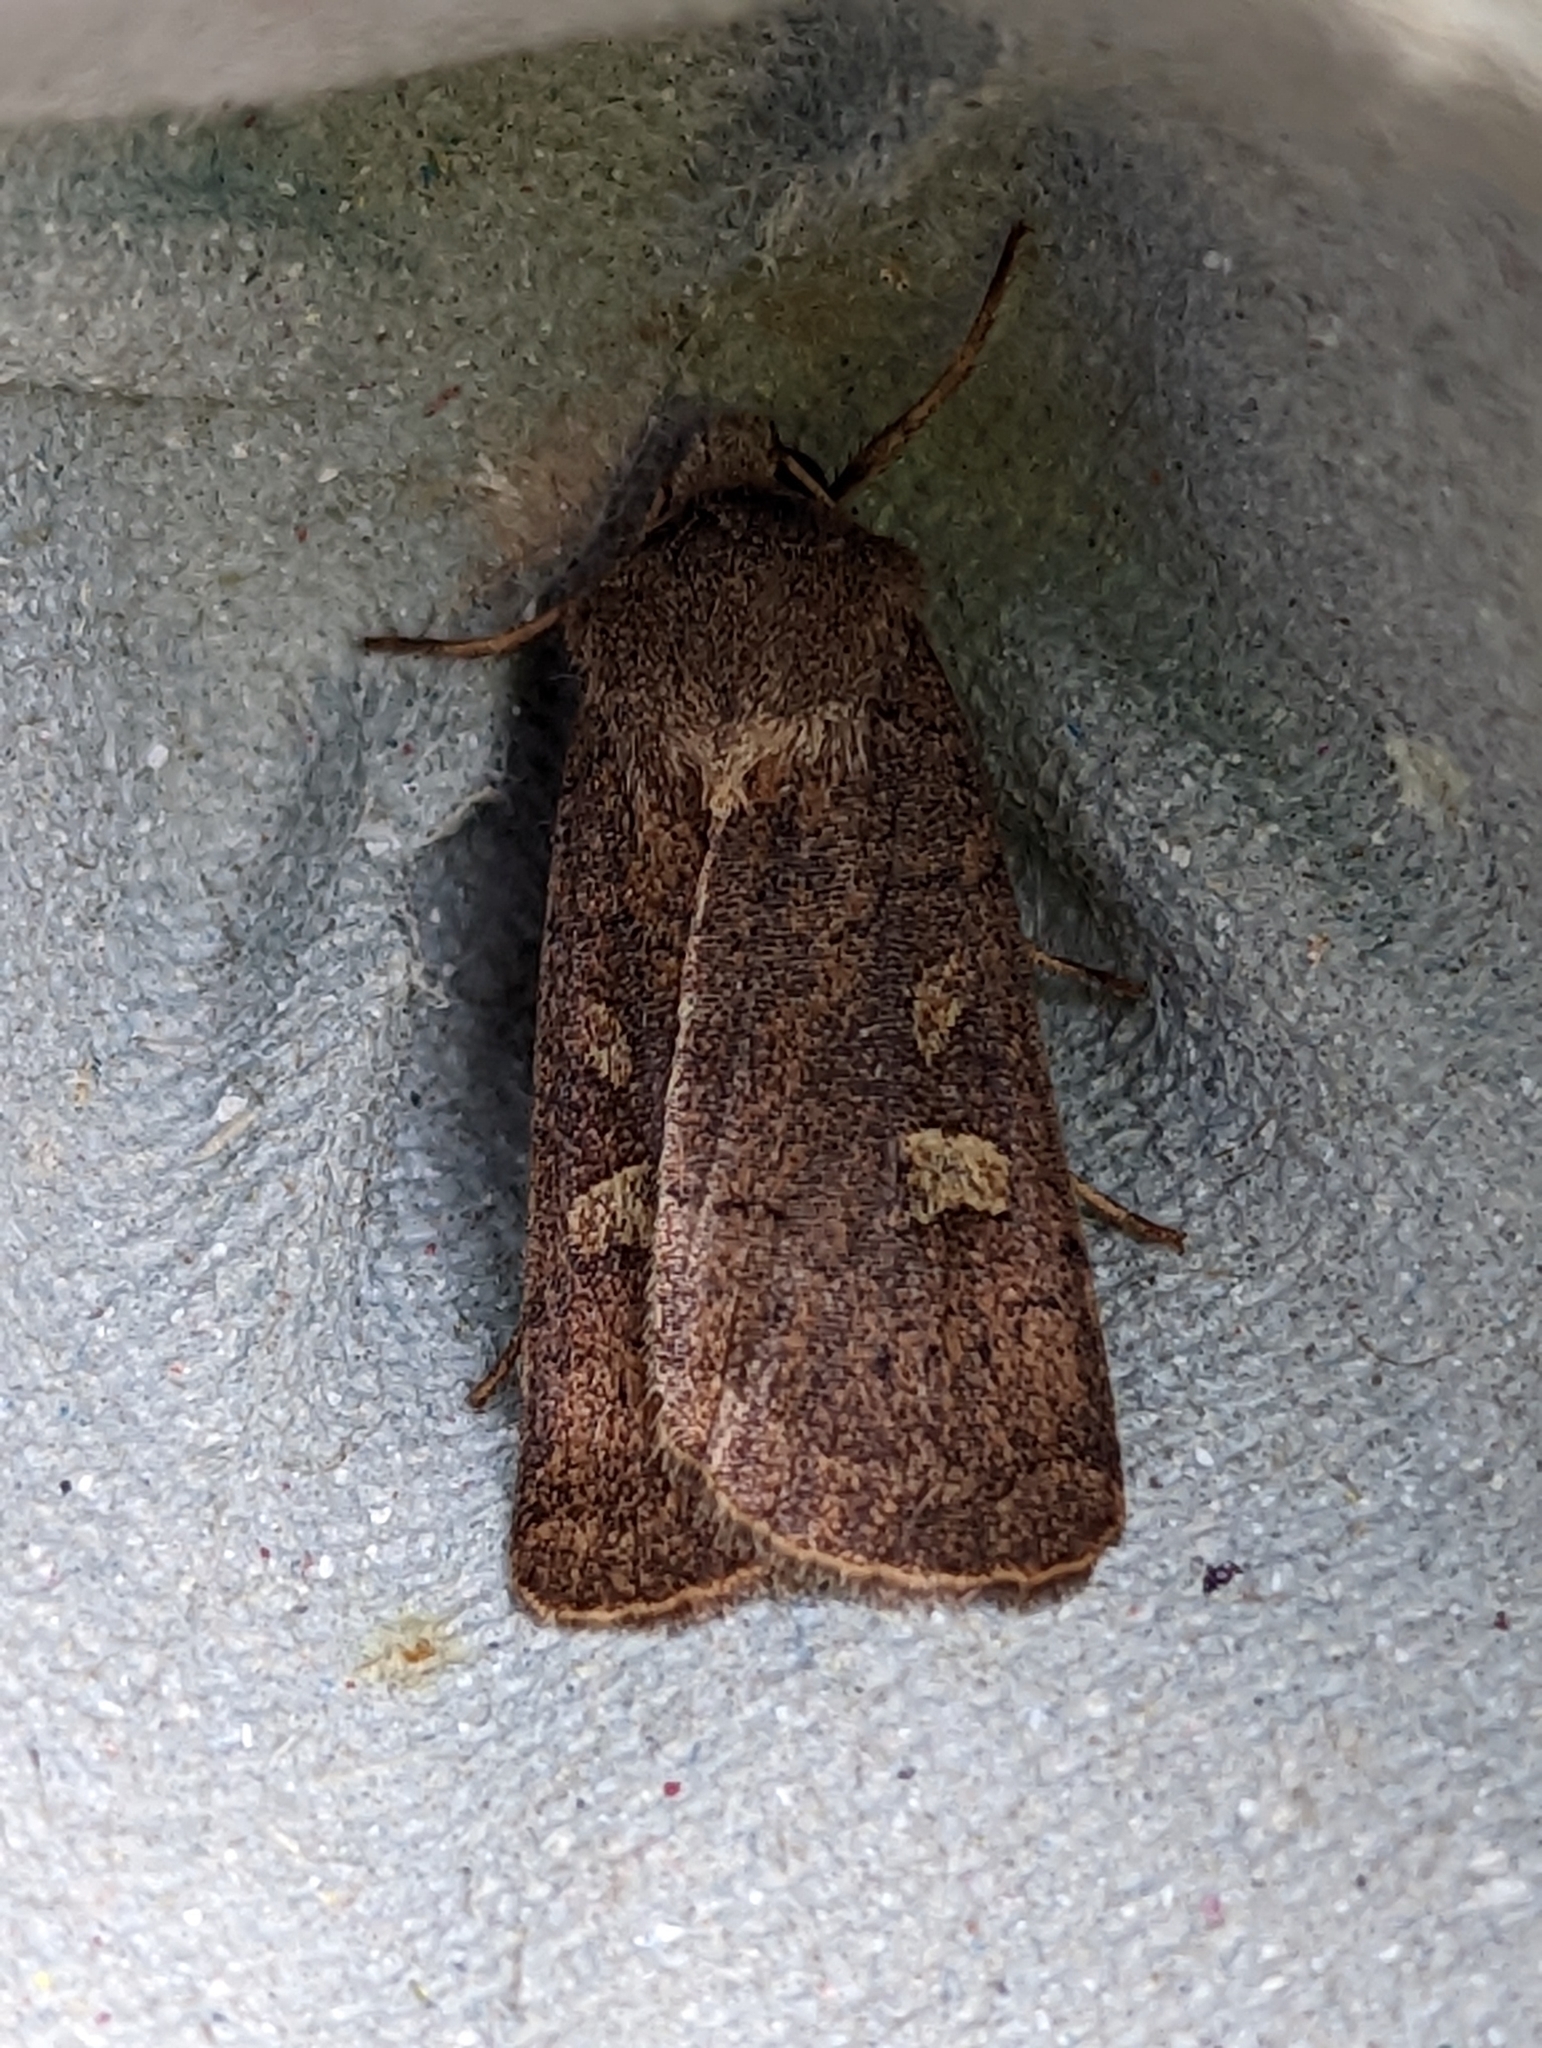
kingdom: Animalia
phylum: Arthropoda
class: Insecta
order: Lepidoptera
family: Noctuidae
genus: Xestia
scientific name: Xestia xanthographa
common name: Square-spot rustic
